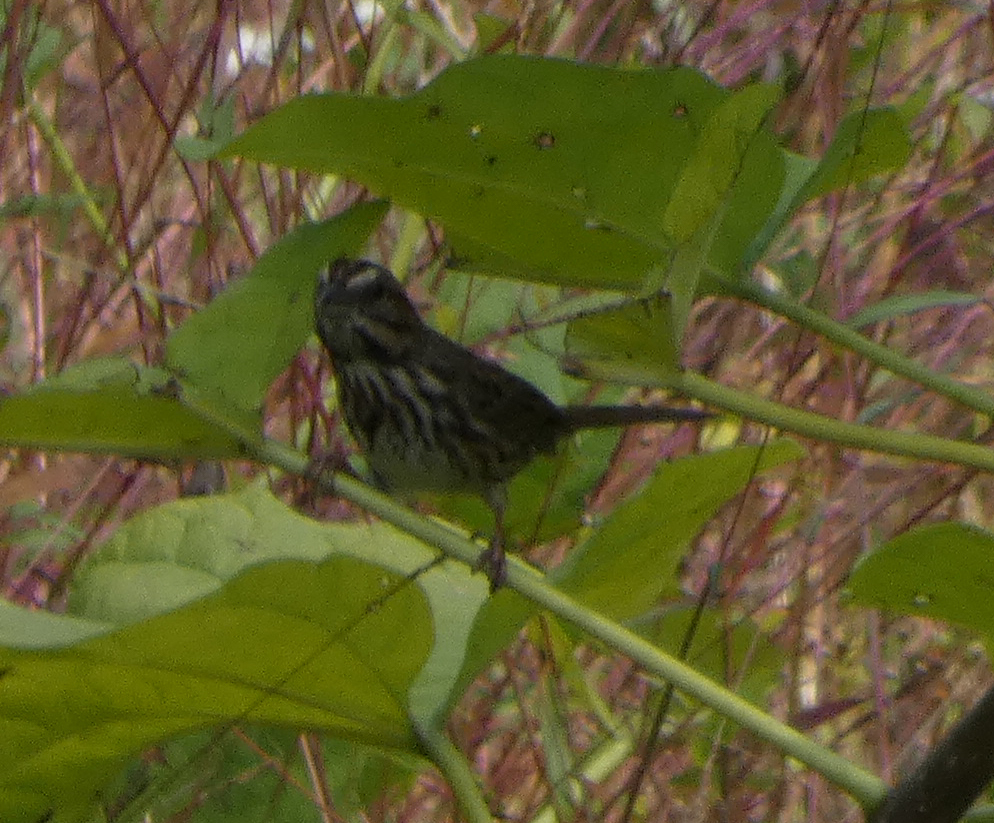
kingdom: Animalia
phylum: Chordata
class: Aves
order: Passeriformes
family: Passerellidae
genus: Melospiza
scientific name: Melospiza melodia
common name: Song sparrow
